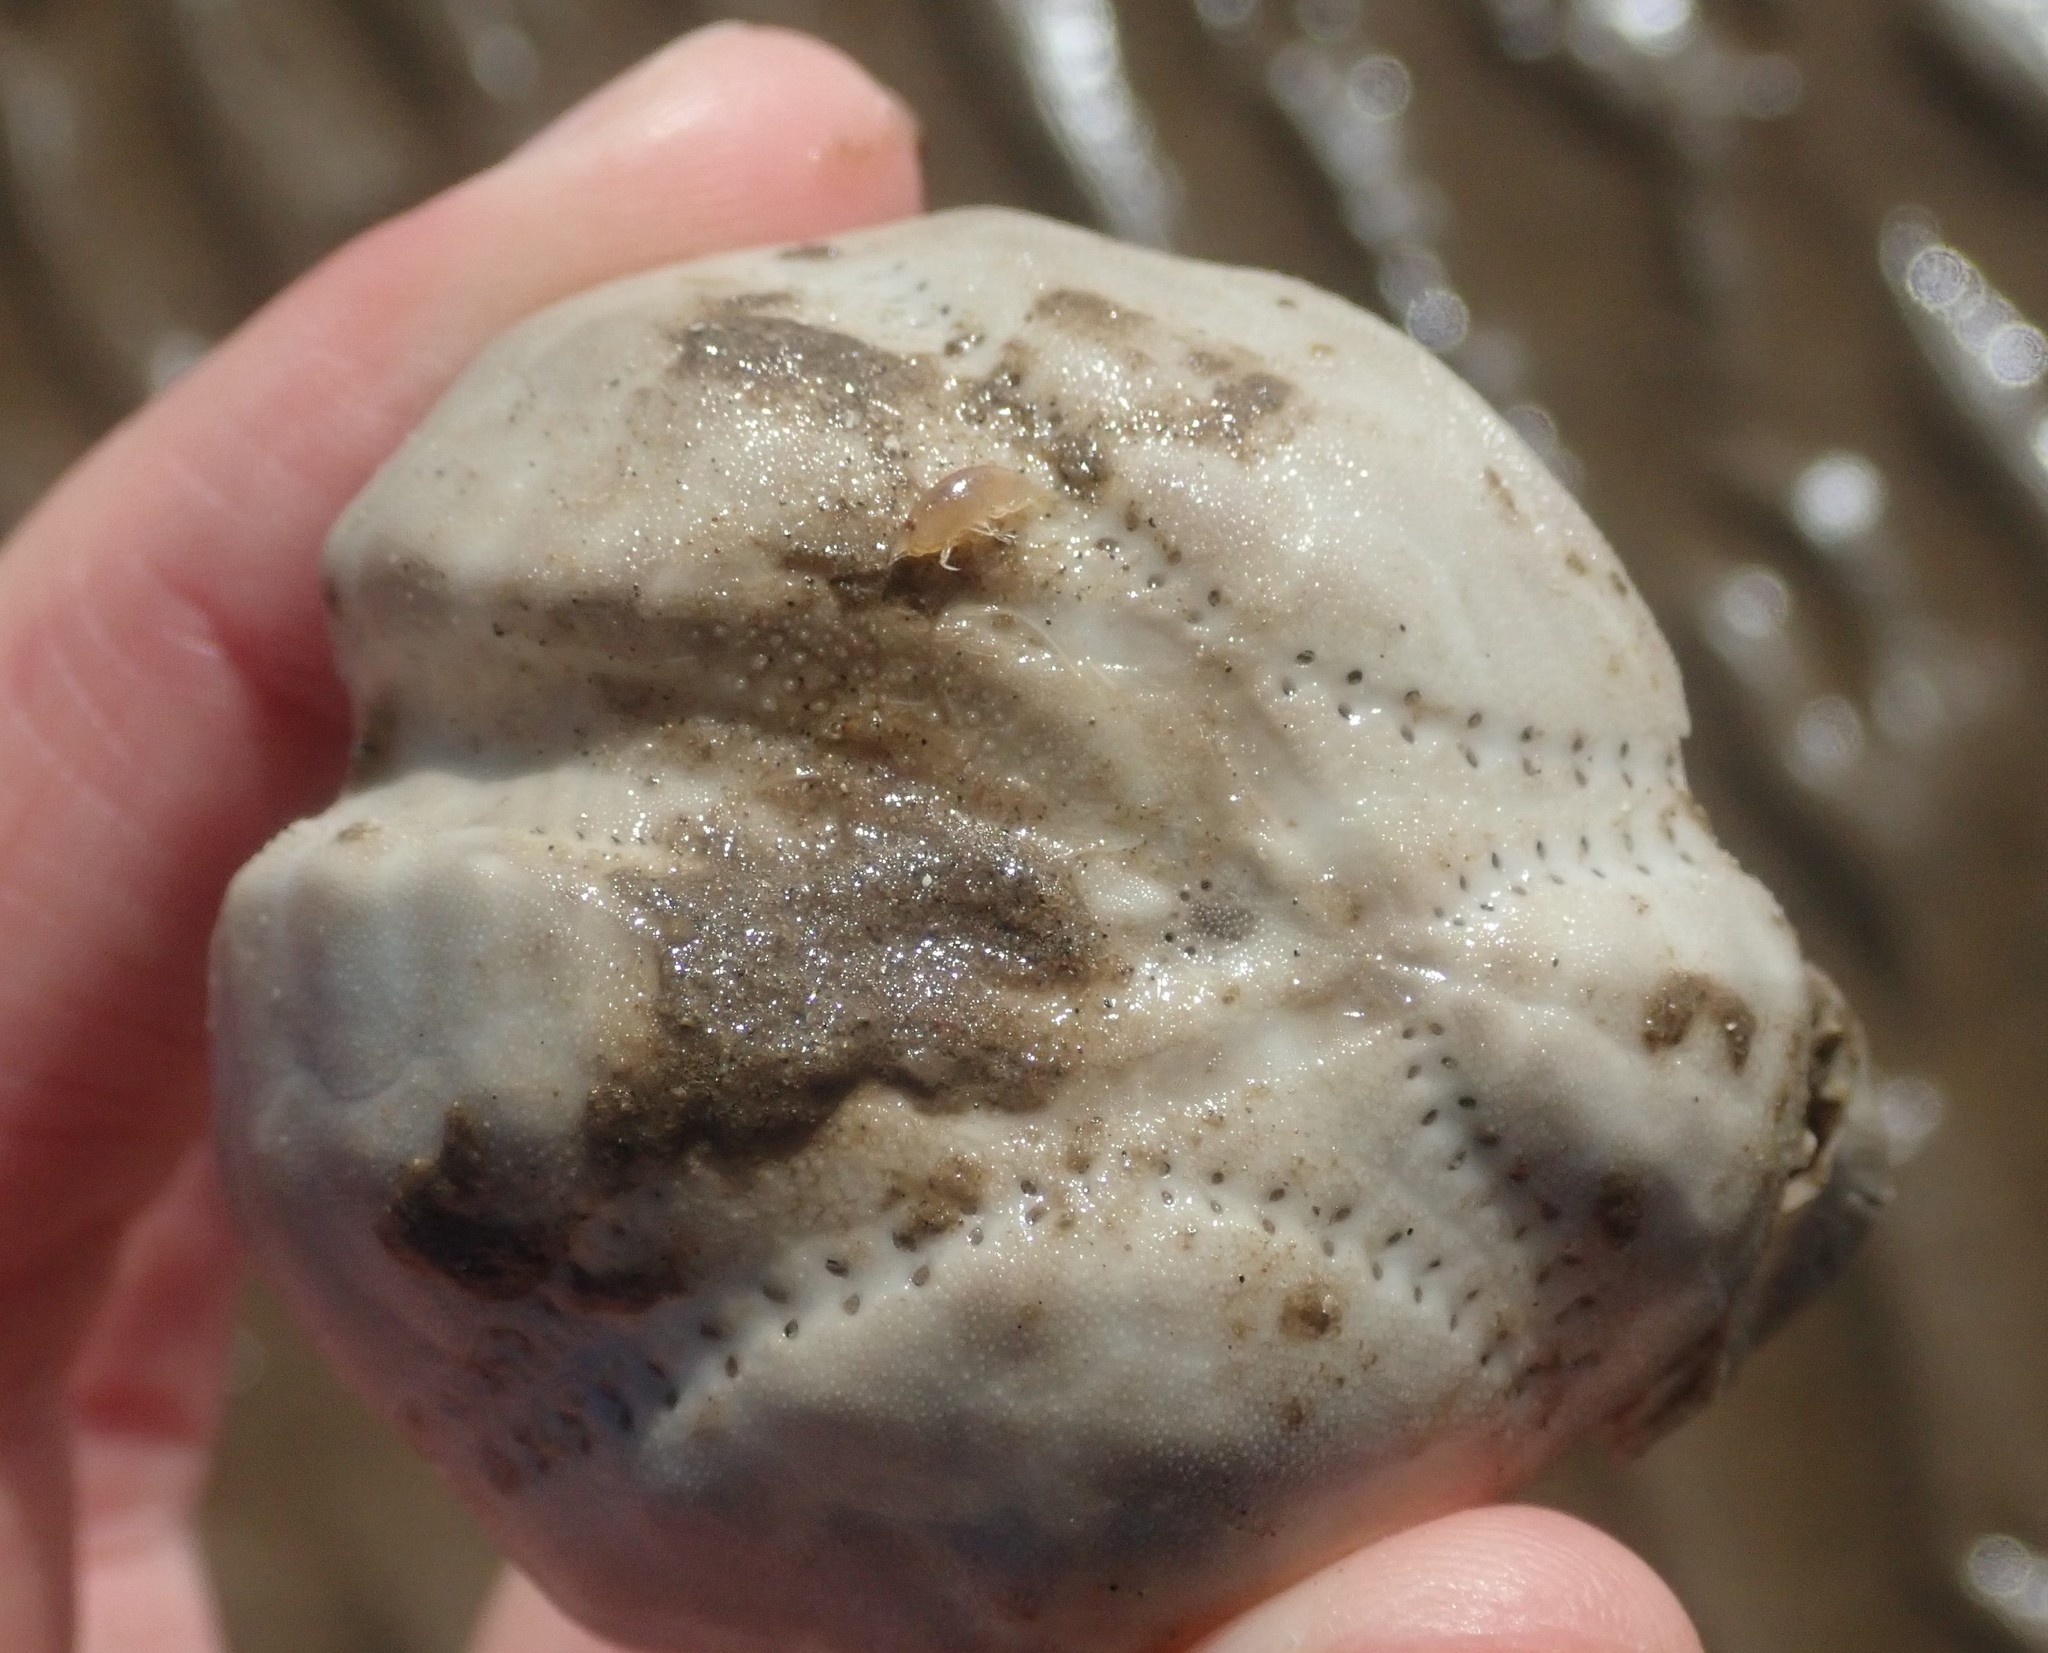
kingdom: Animalia
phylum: Echinodermata
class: Echinoidea
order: Spatangoida
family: Loveniidae
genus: Echinocardium
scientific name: Echinocardium cordatum
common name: Heart-urchin
